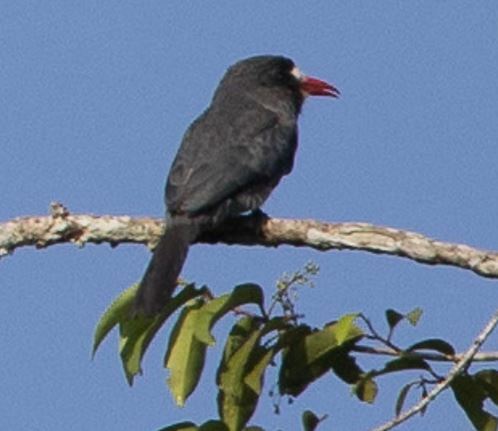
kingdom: Animalia
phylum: Chordata
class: Aves
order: Piciformes
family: Bucconidae
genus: Monasa
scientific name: Monasa morphoeus
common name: White-fronted nunbird
